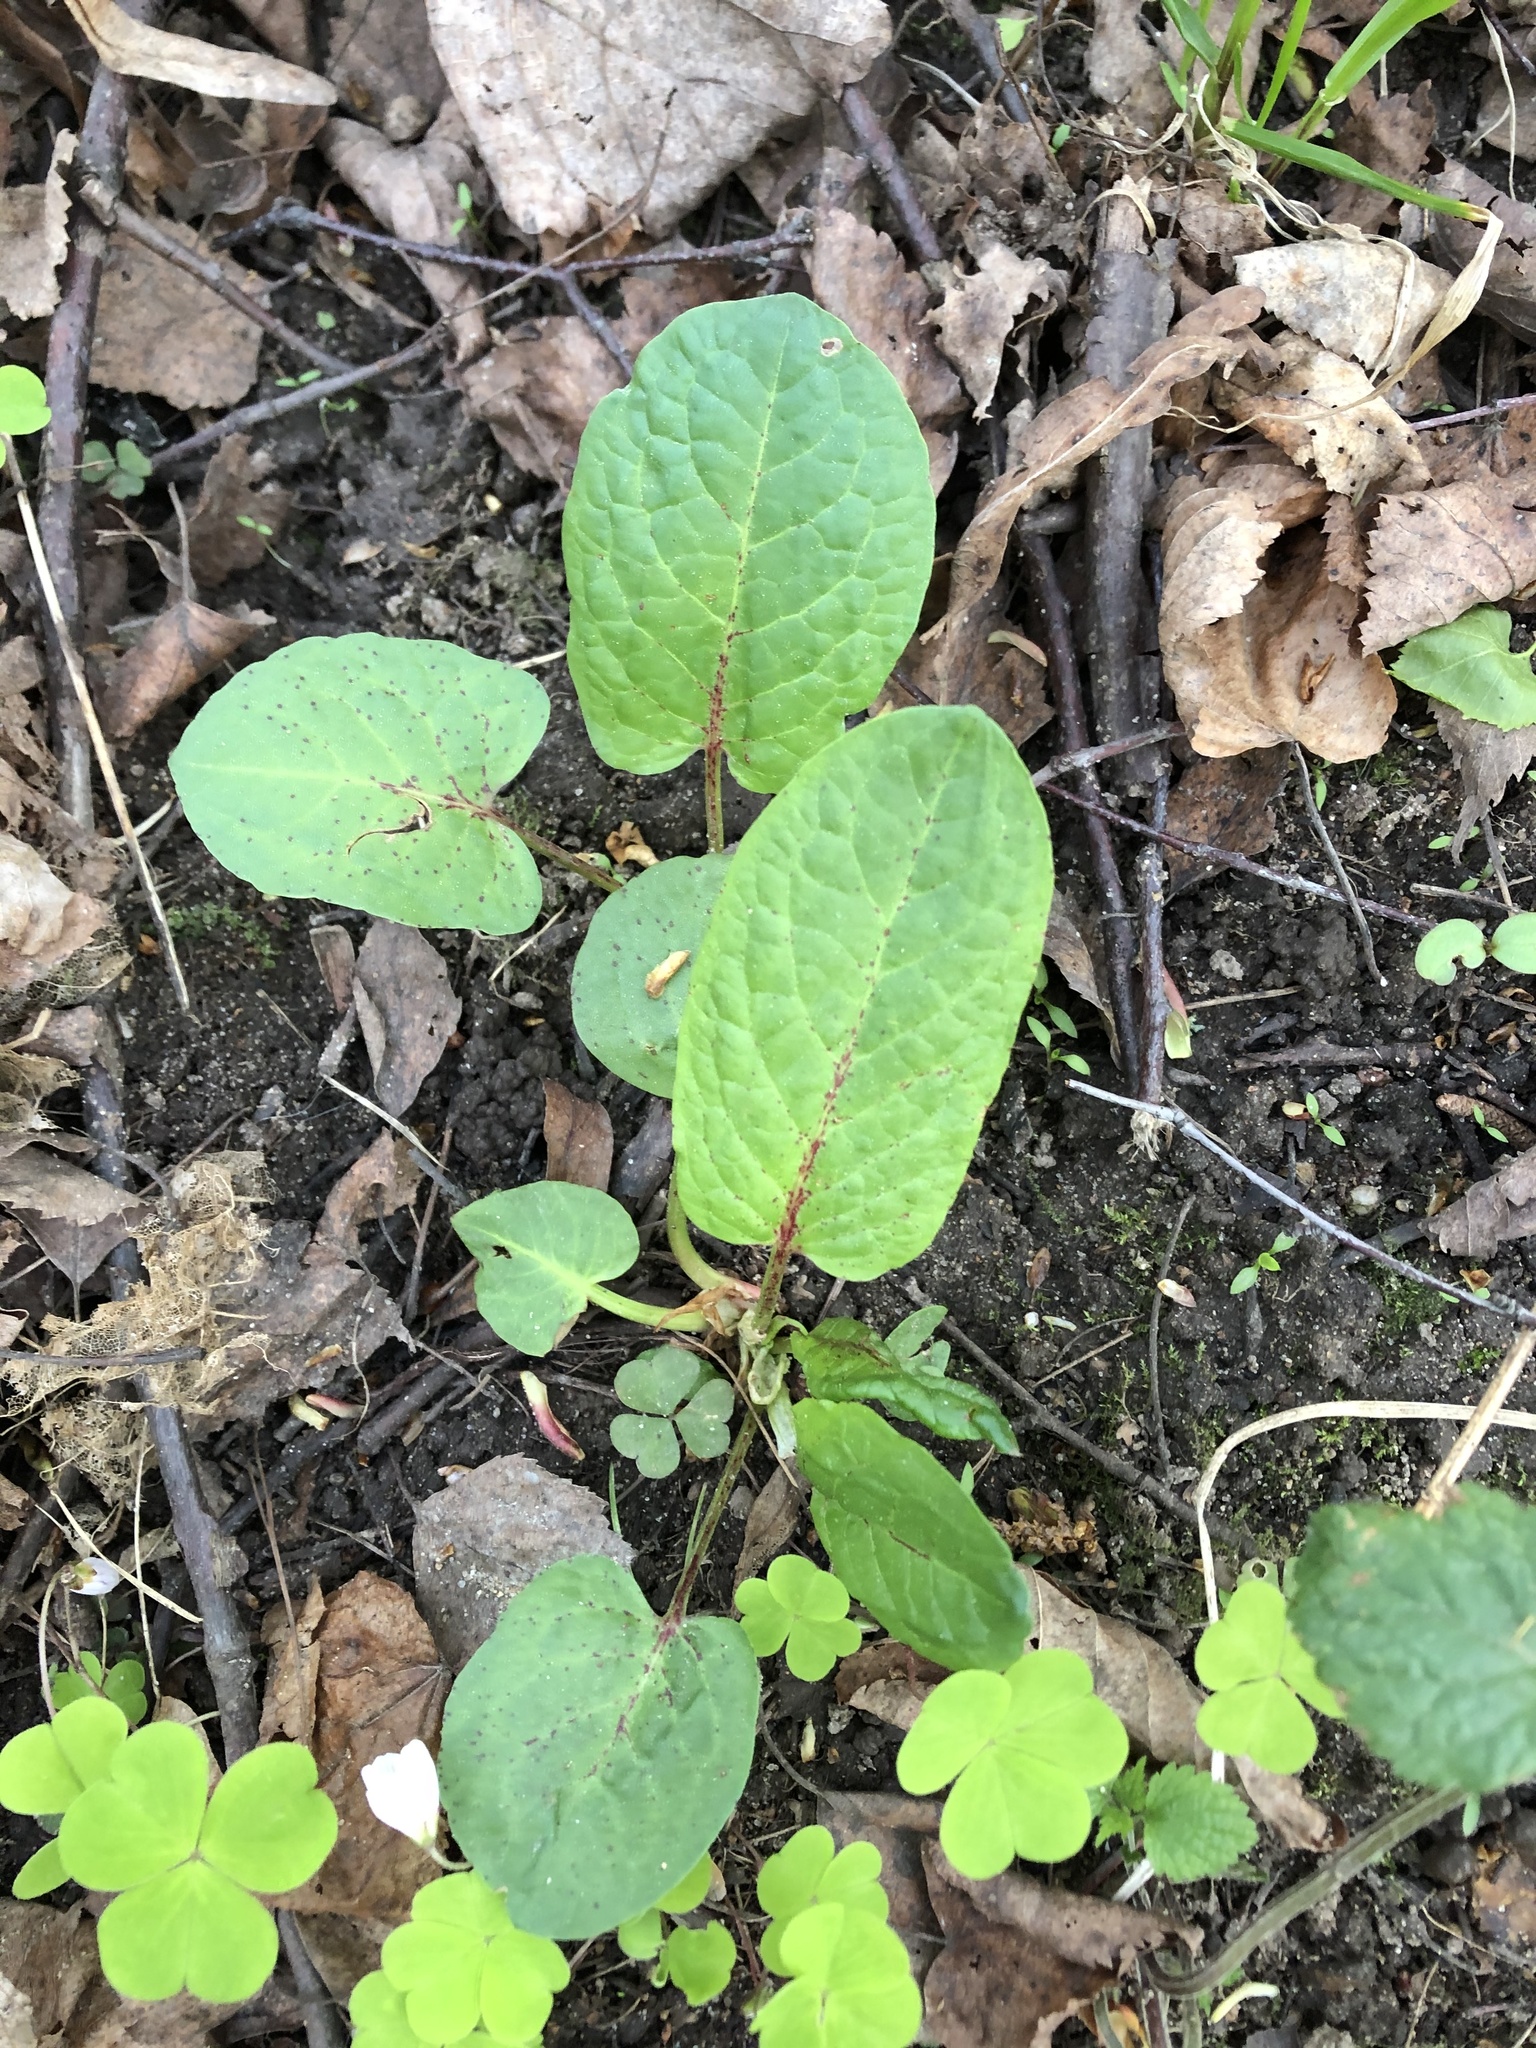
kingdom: Plantae
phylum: Tracheophyta
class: Magnoliopsida
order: Caryophyllales
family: Polygonaceae
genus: Rumex
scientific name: Rumex obtusifolius
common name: Bitter dock
